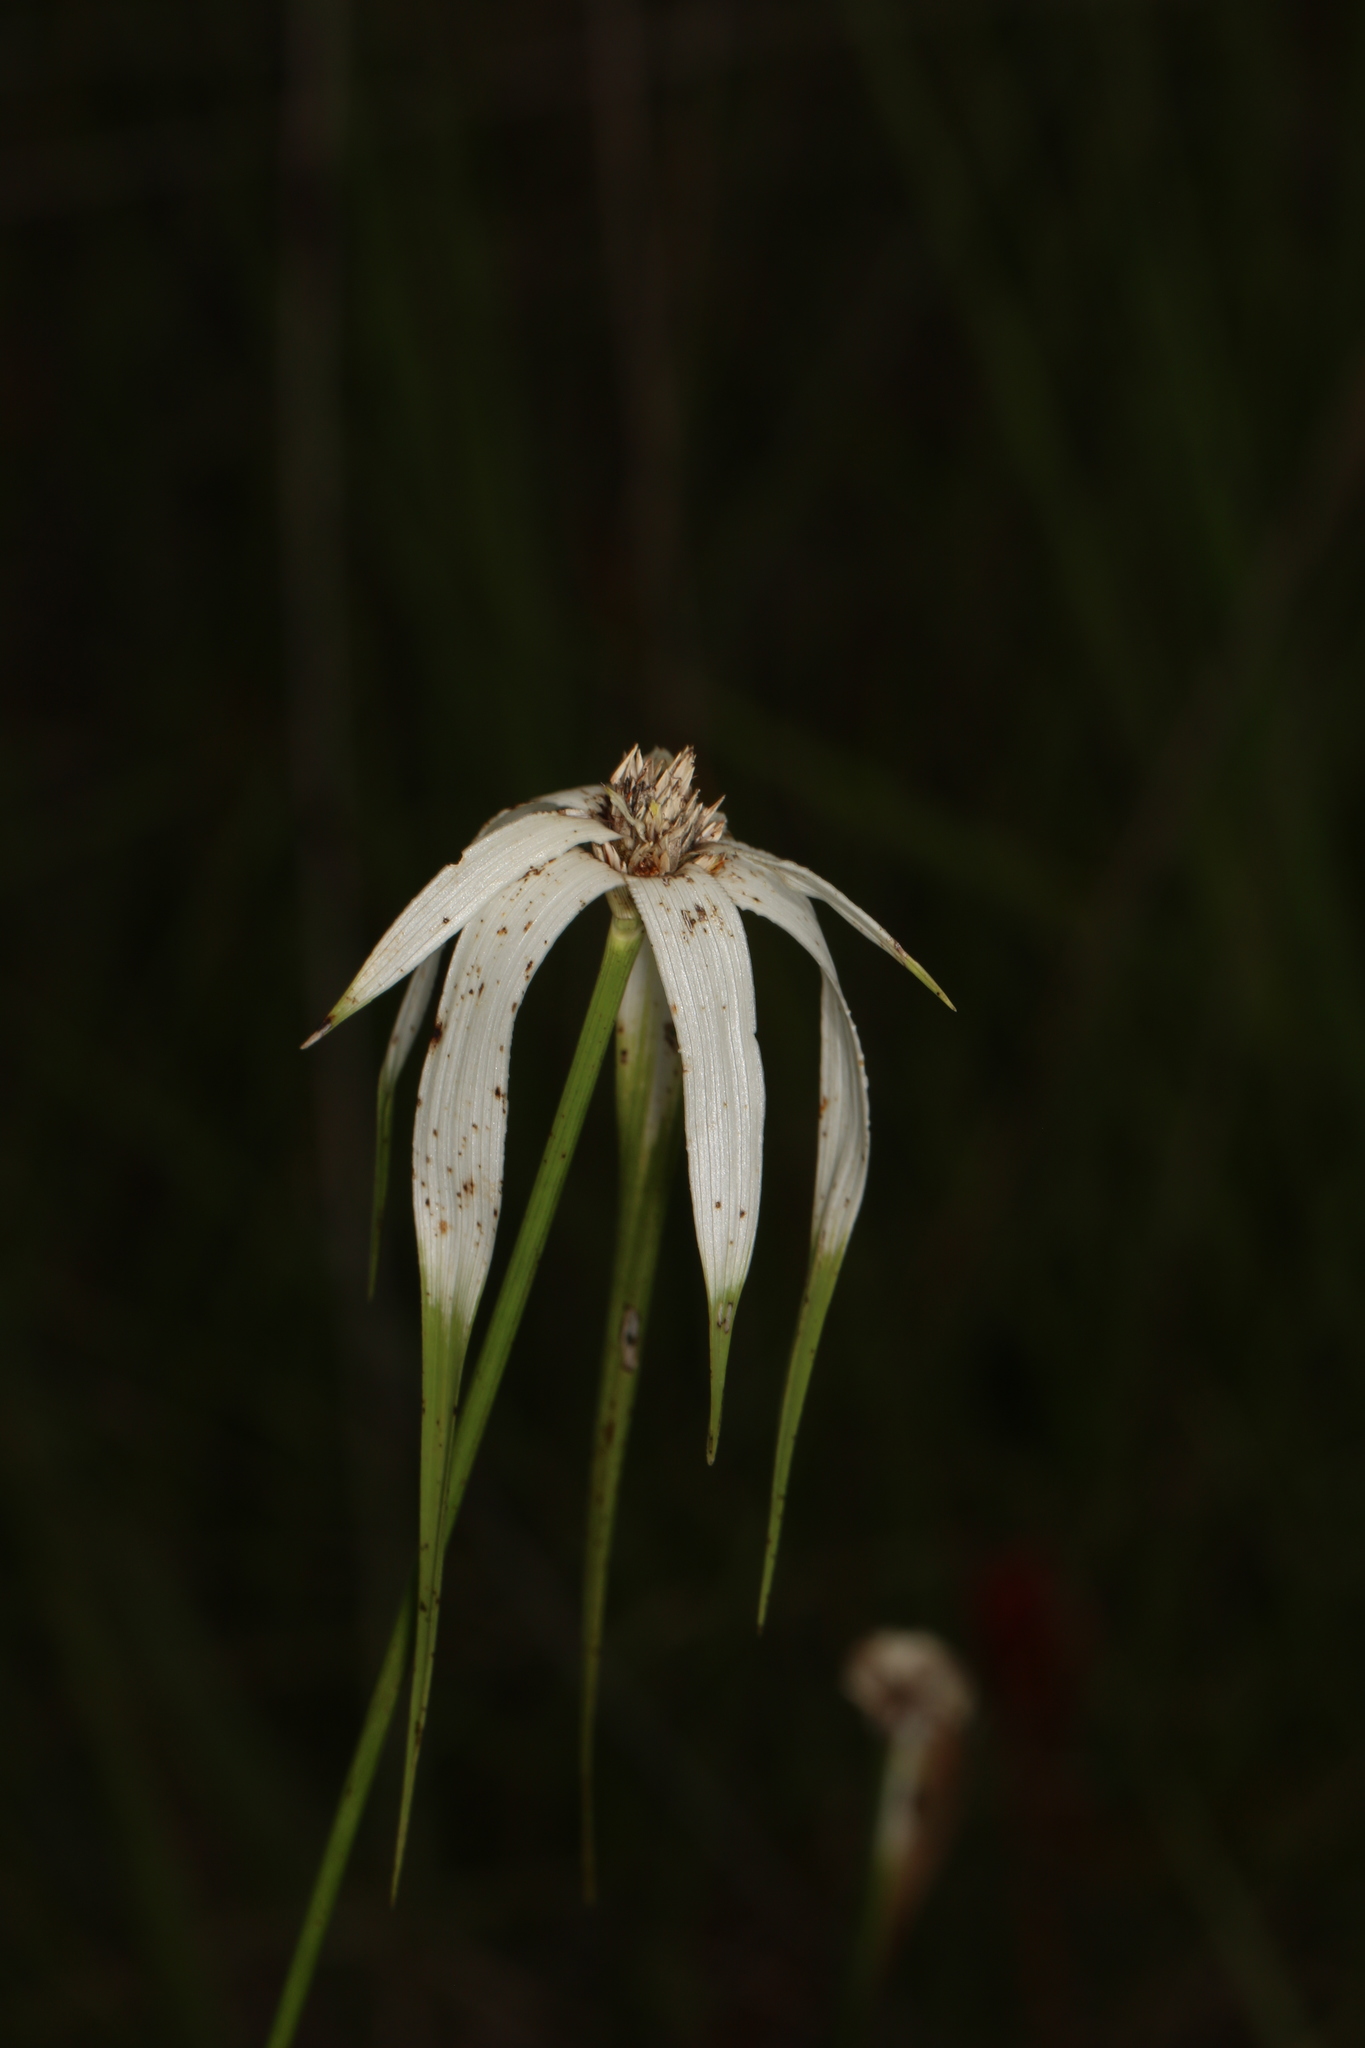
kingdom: Plantae
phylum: Tracheophyta
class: Liliopsida
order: Poales
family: Cyperaceae
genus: Rhynchospora
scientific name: Rhynchospora colorata
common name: Star sedge
